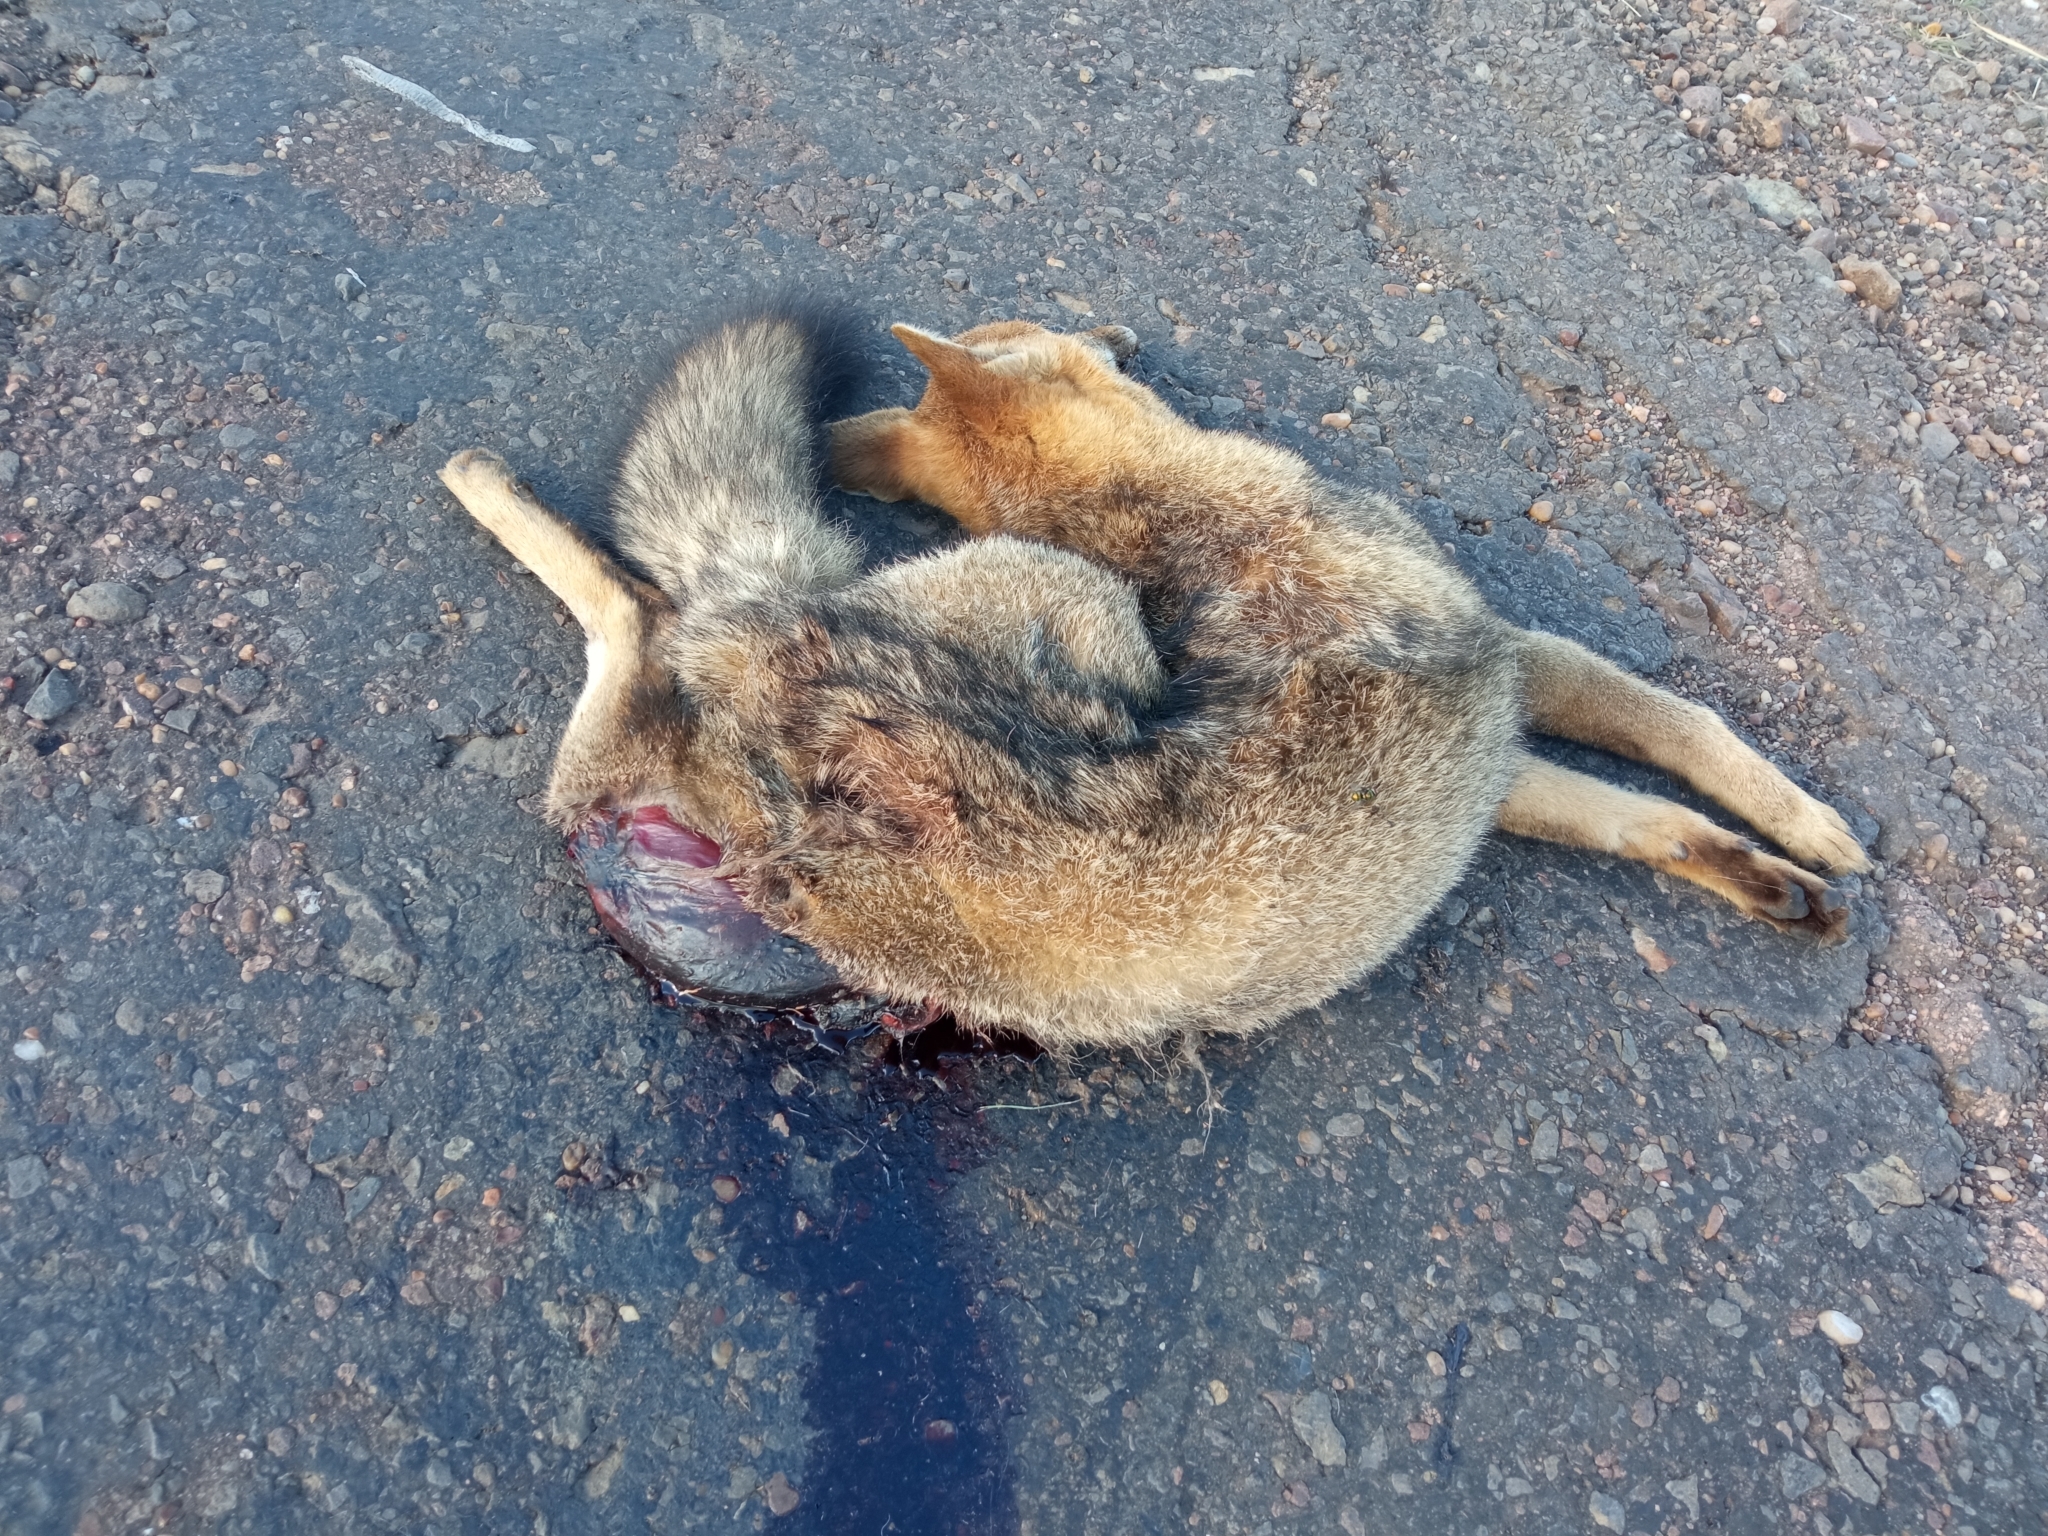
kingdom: Animalia
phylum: Chordata
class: Mammalia
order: Carnivora
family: Canidae
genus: Lycalopex
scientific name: Lycalopex gymnocercus
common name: Pampas fox
